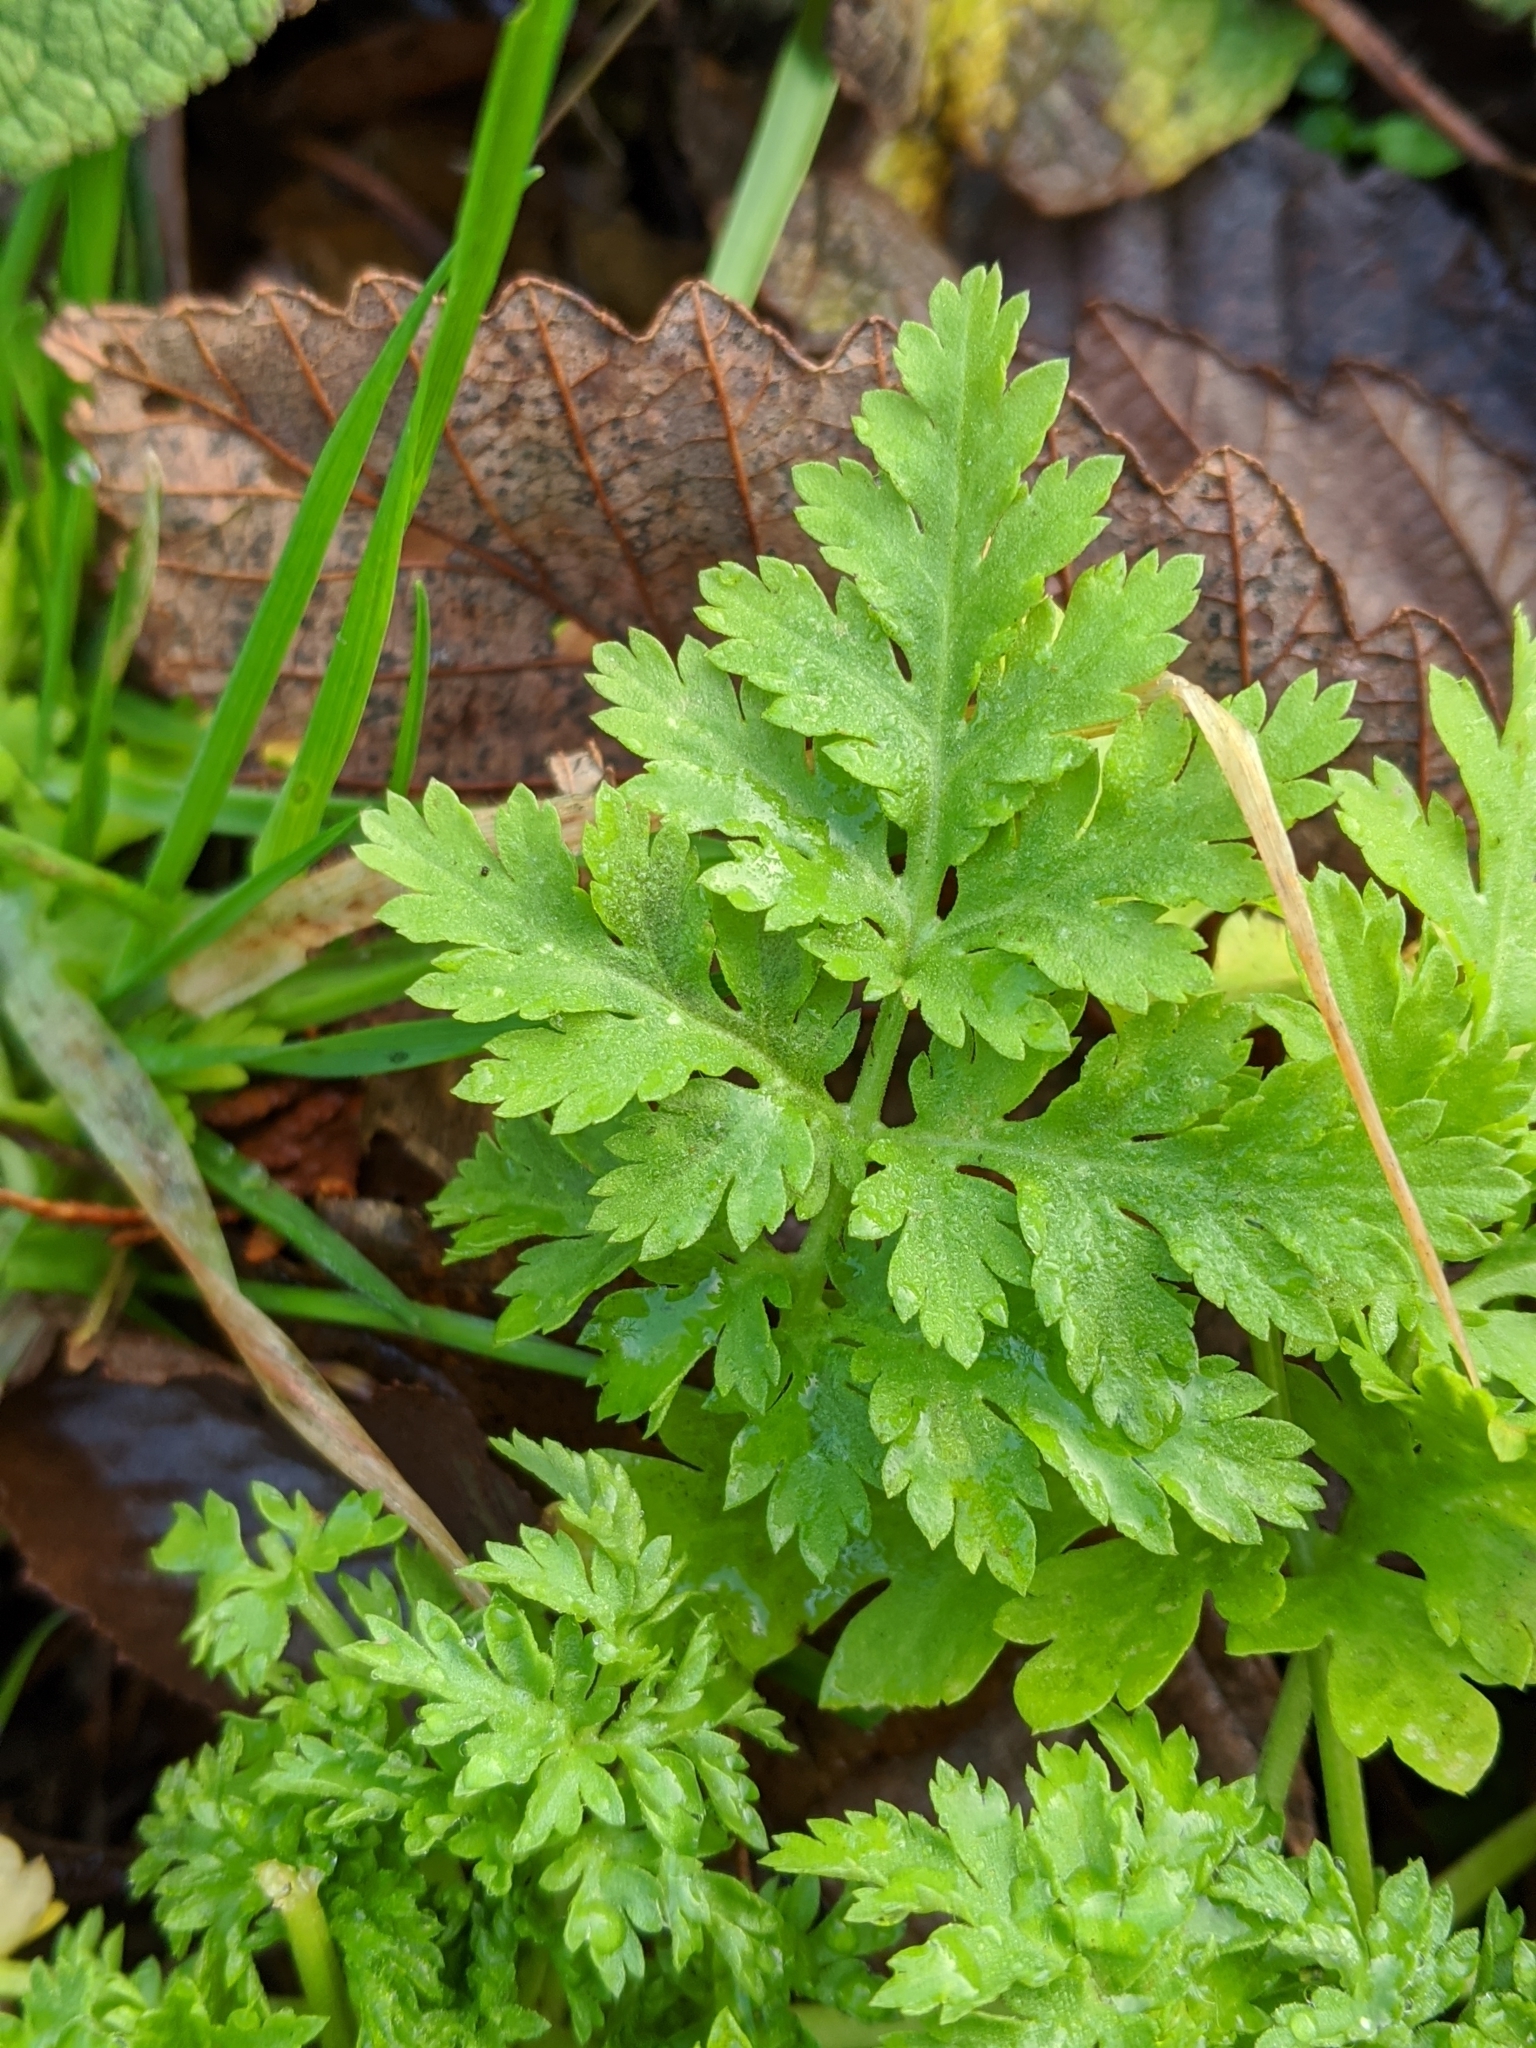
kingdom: Plantae
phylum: Tracheophyta
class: Magnoliopsida
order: Asterales
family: Asteraceae
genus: Tanacetum
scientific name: Tanacetum parthenium
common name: Feverfew
